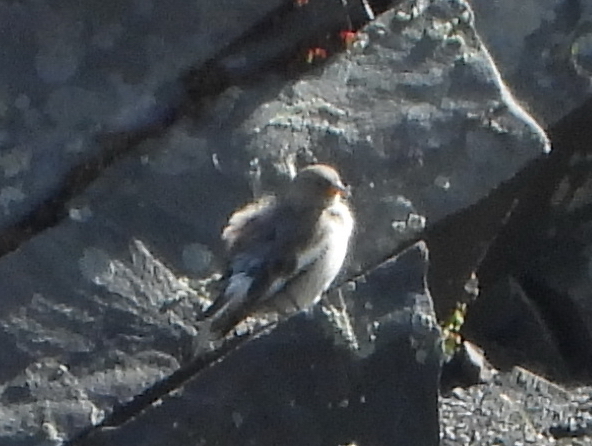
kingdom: Animalia
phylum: Chordata
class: Aves
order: Passeriformes
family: Passeridae
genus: Montifringilla
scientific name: Montifringilla nivalis
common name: White-winged snowfinch
